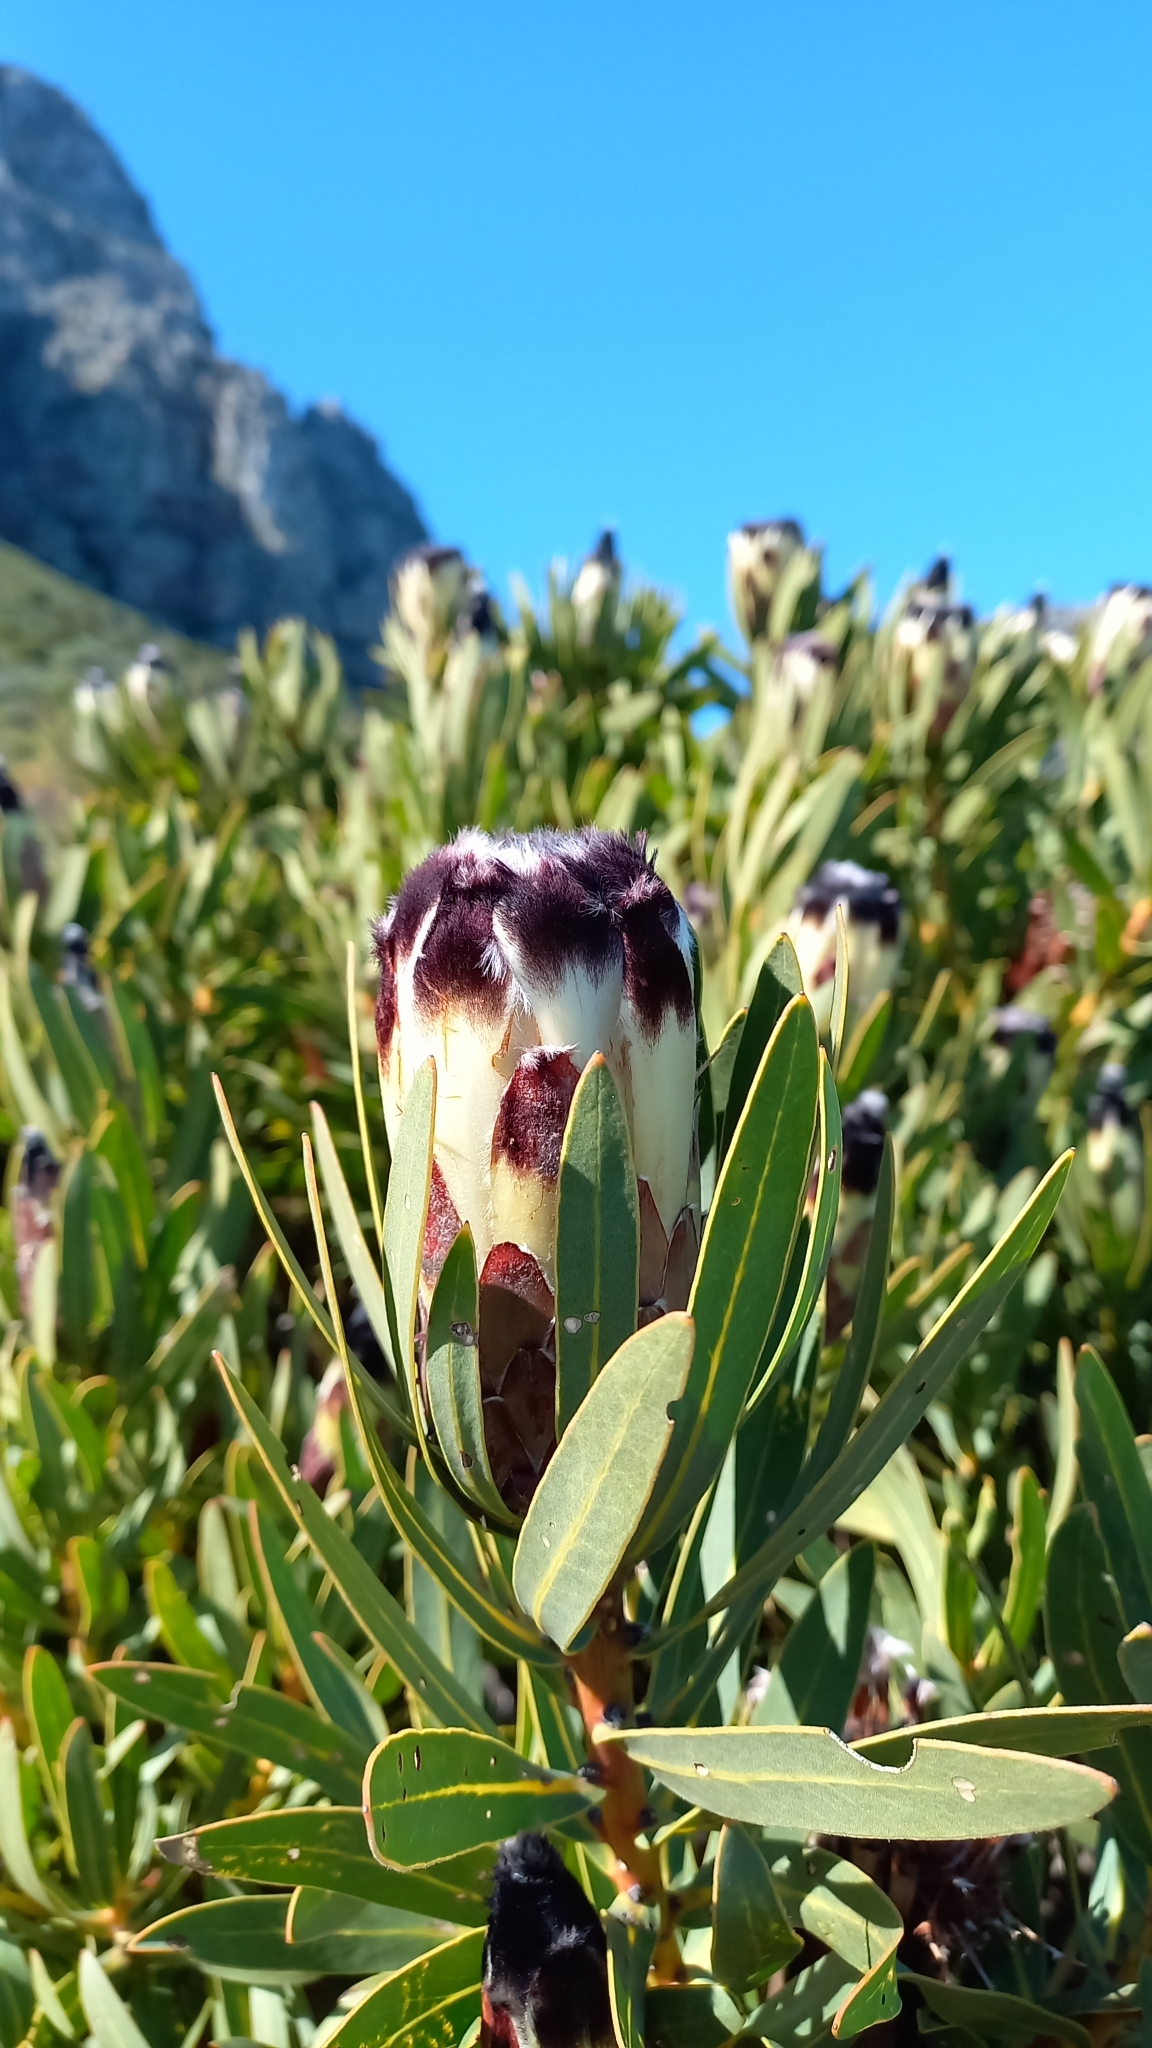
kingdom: Plantae
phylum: Tracheophyta
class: Magnoliopsida
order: Proteales
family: Proteaceae
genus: Protea
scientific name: Protea lepidocarpodendron
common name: Black-bearded protea
